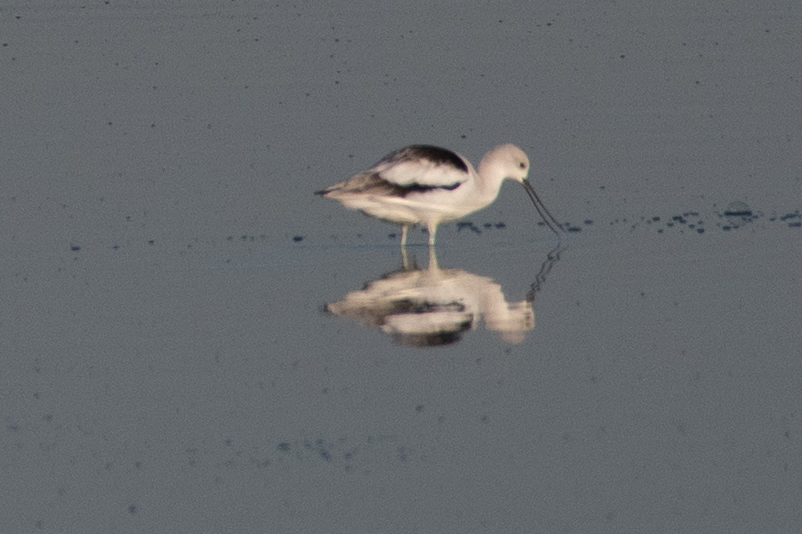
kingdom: Animalia
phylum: Chordata
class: Aves
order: Charadriiformes
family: Recurvirostridae
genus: Recurvirostra
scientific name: Recurvirostra americana
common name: American avocet
